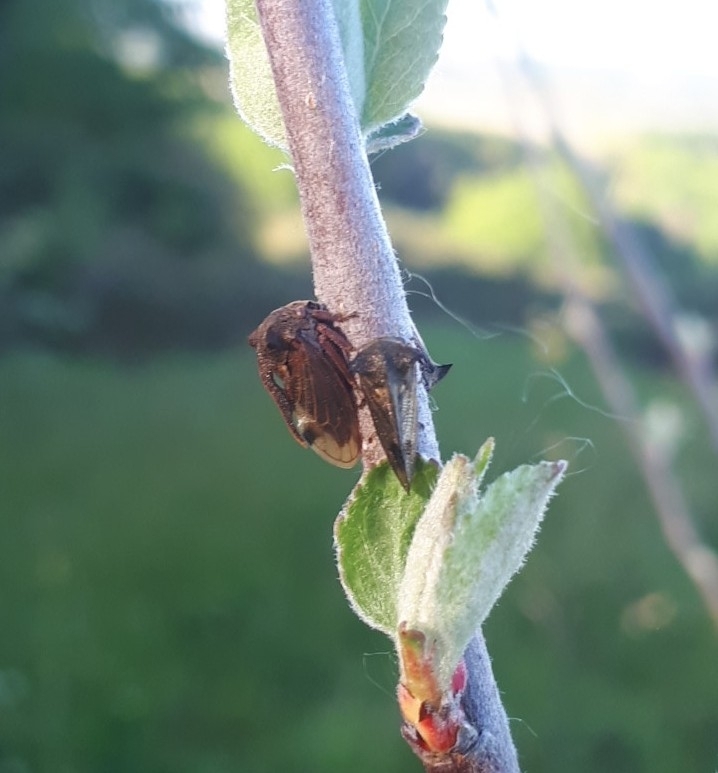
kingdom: Animalia
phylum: Arthropoda
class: Insecta
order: Hemiptera
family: Membracidae
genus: Centrotus
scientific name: Centrotus cornuta
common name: Treehopper
